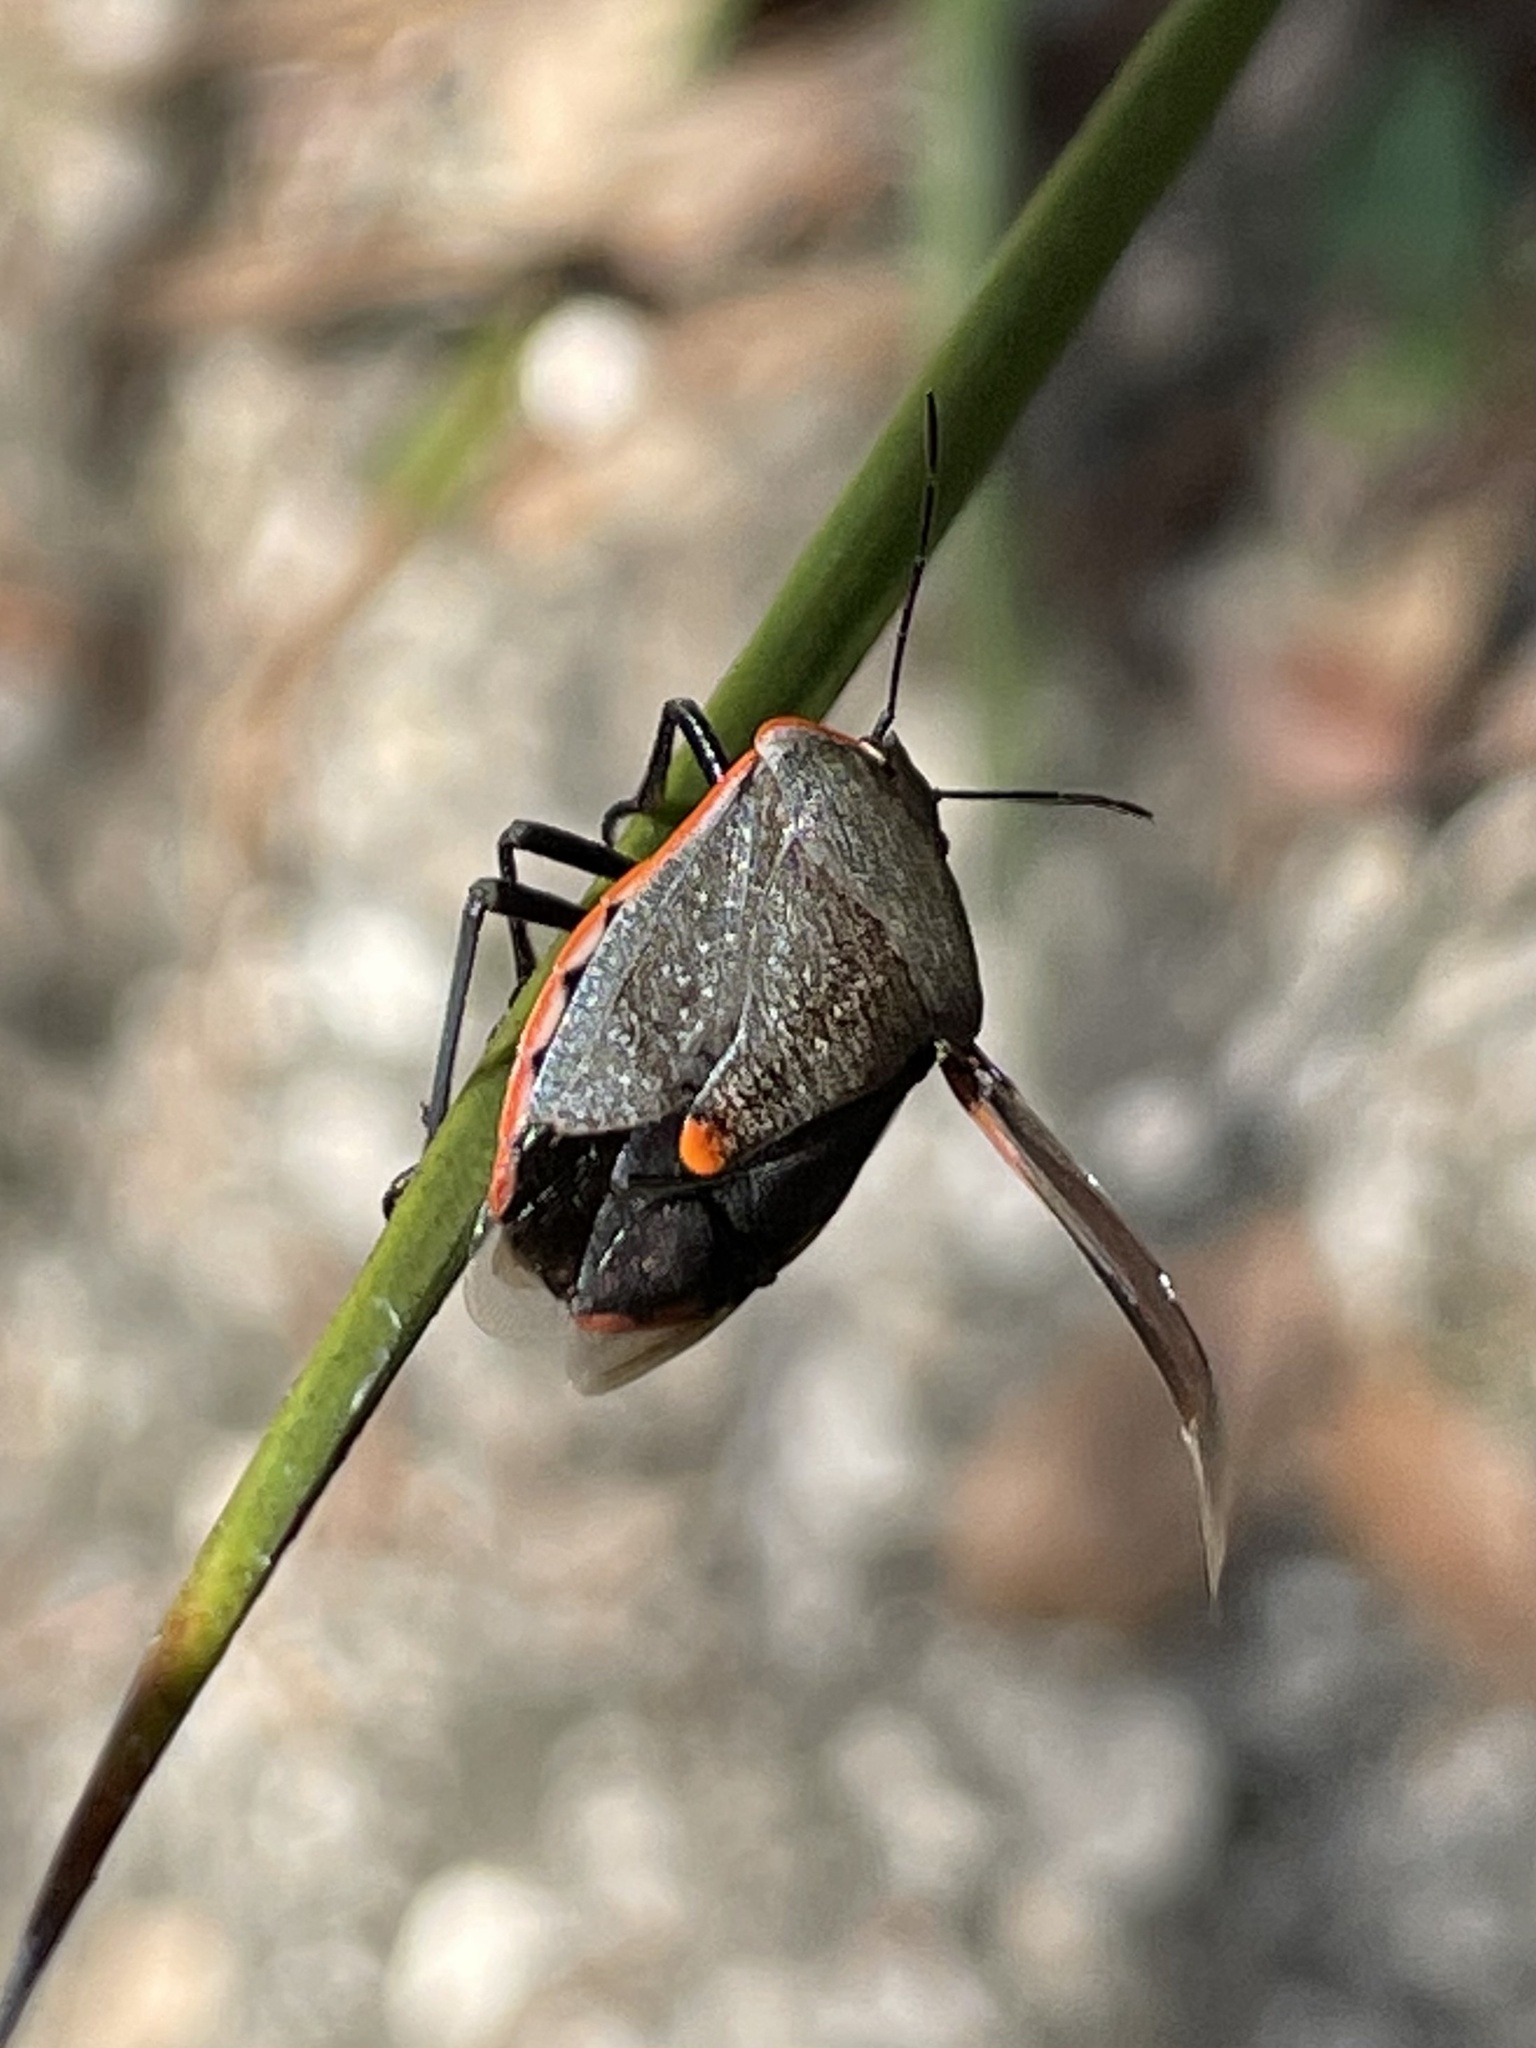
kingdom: Animalia
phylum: Arthropoda
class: Insecta
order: Hemiptera
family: Pentatomidae
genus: Chlorochroa
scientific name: Chlorochroa ligata
